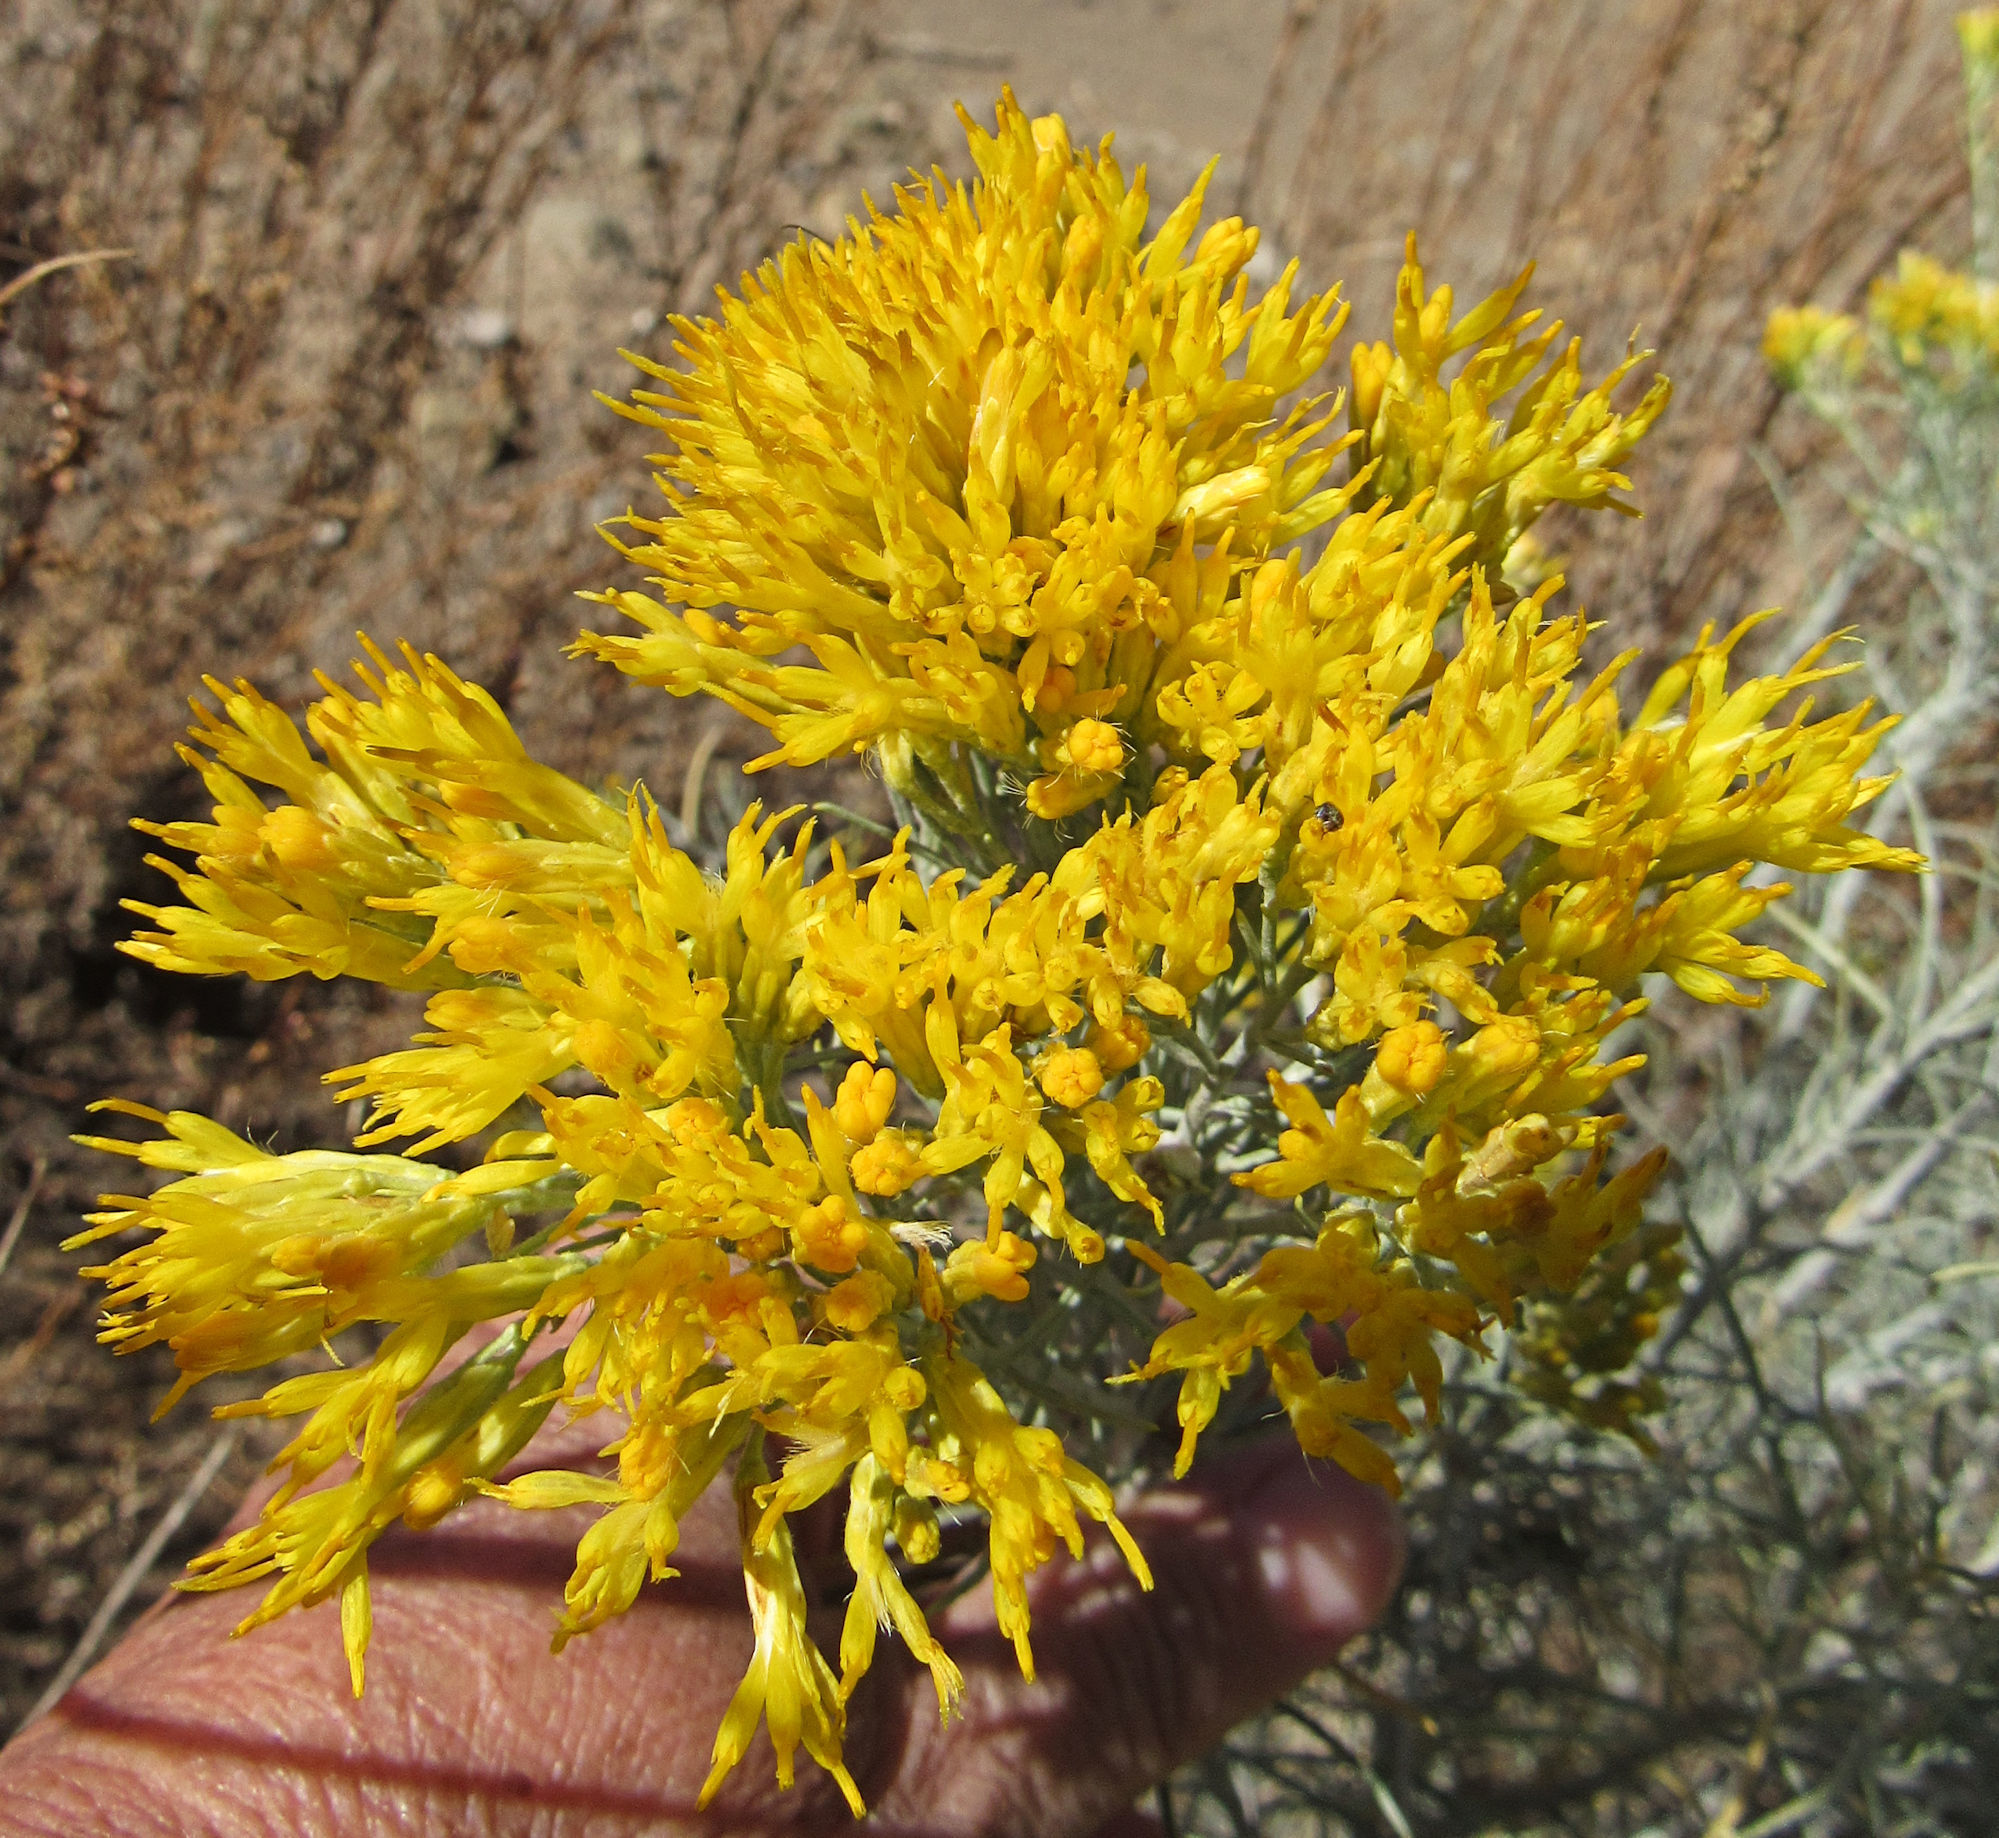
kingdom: Plantae
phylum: Tracheophyta
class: Magnoliopsida
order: Asterales
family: Asteraceae
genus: Ericameria
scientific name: Ericameria nauseosa
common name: Rubber rabbitbrush
